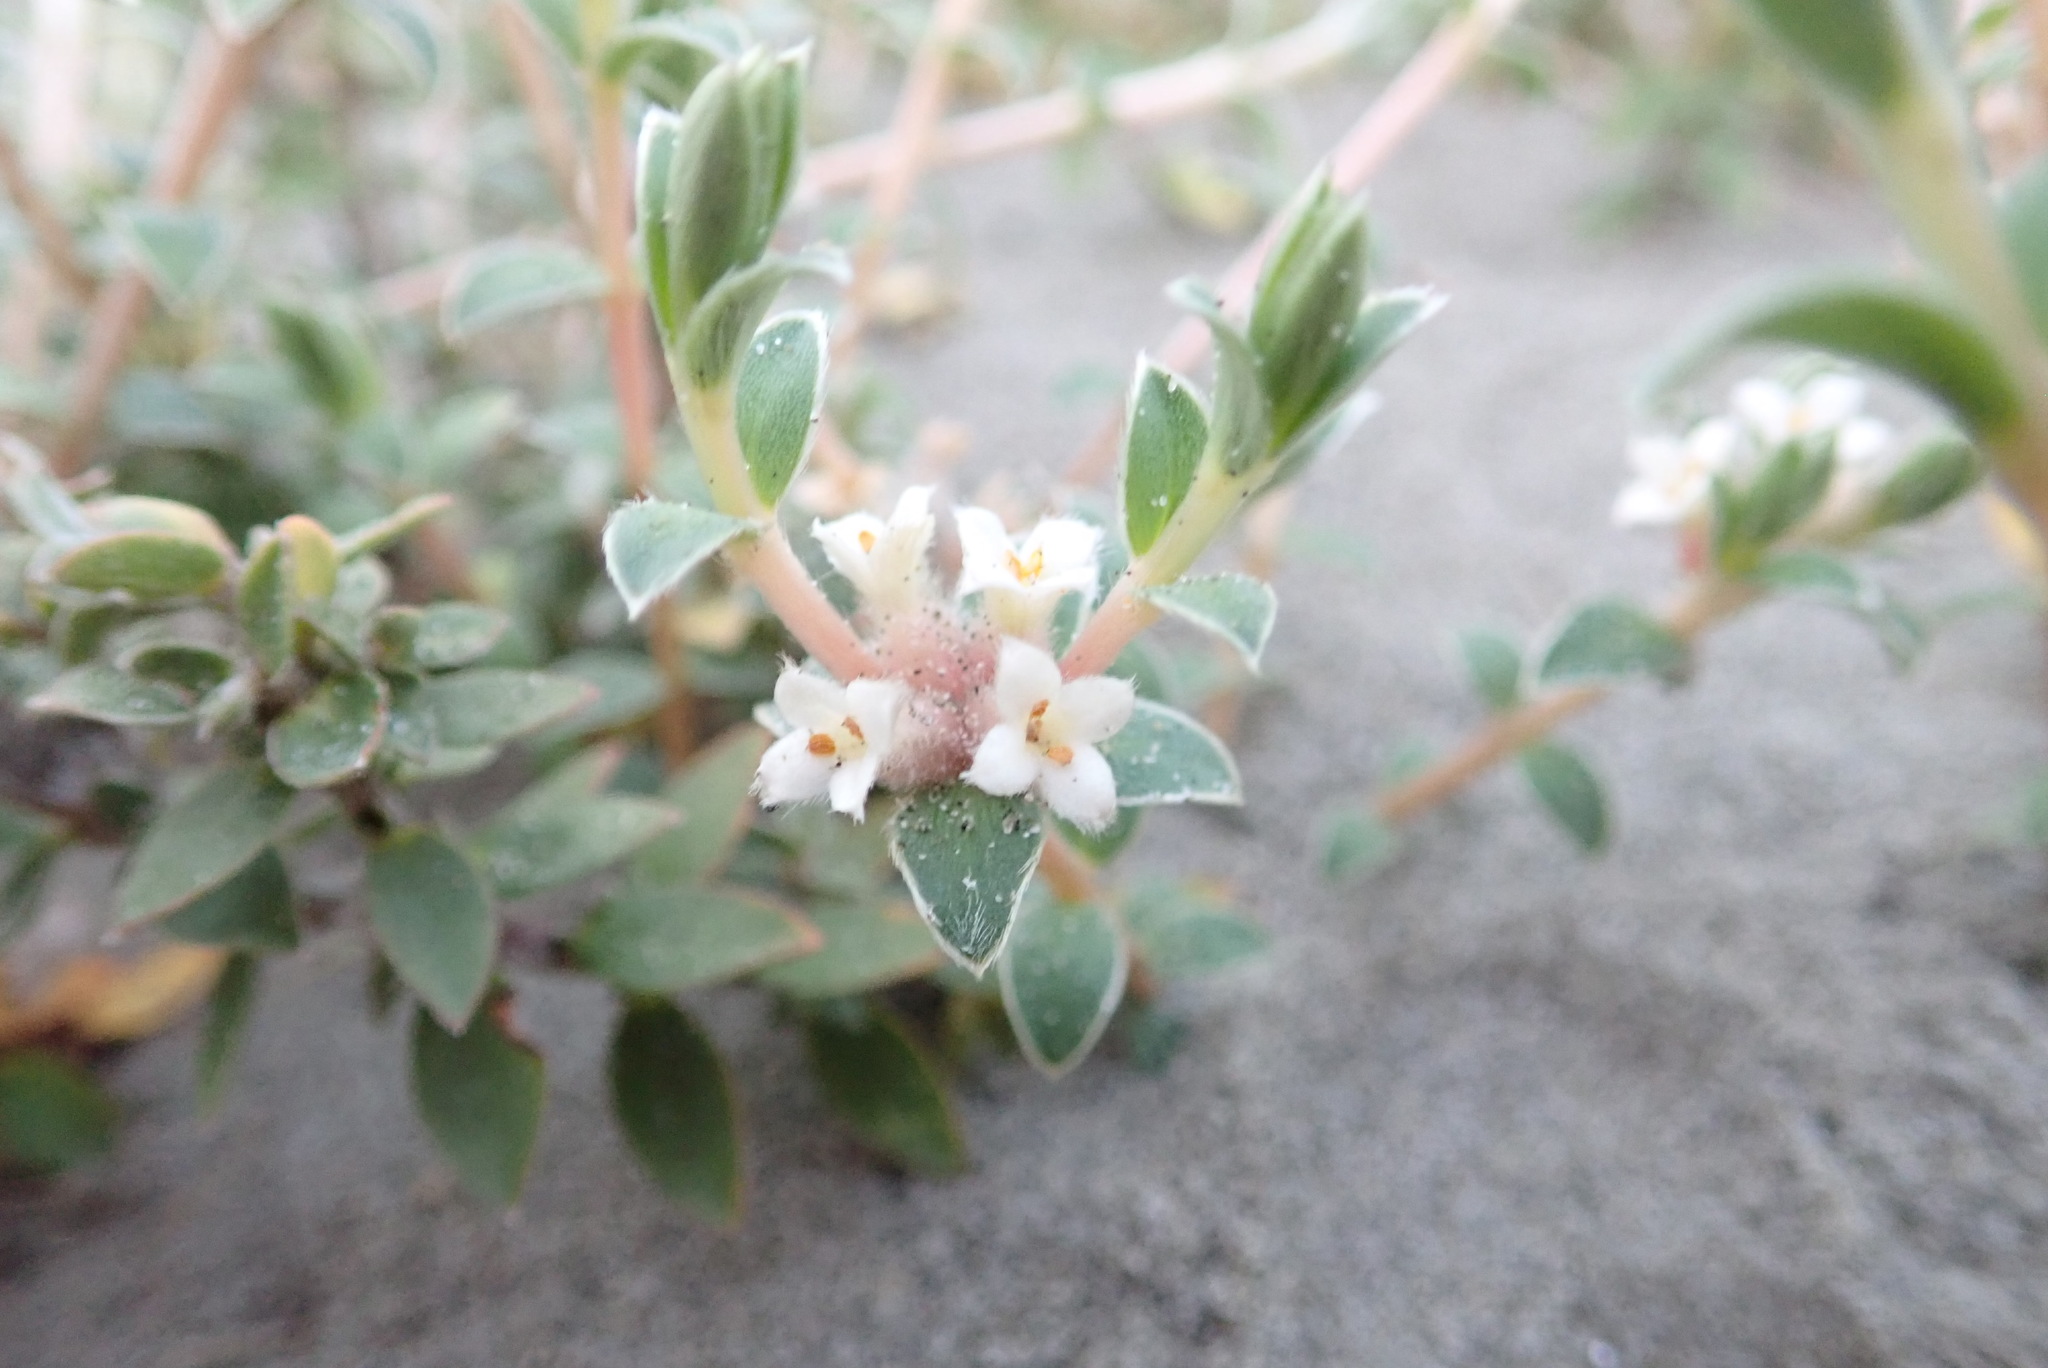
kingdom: Plantae
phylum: Tracheophyta
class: Magnoliopsida
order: Malvales
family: Thymelaeaceae
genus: Pimelea
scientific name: Pimelea villosa
